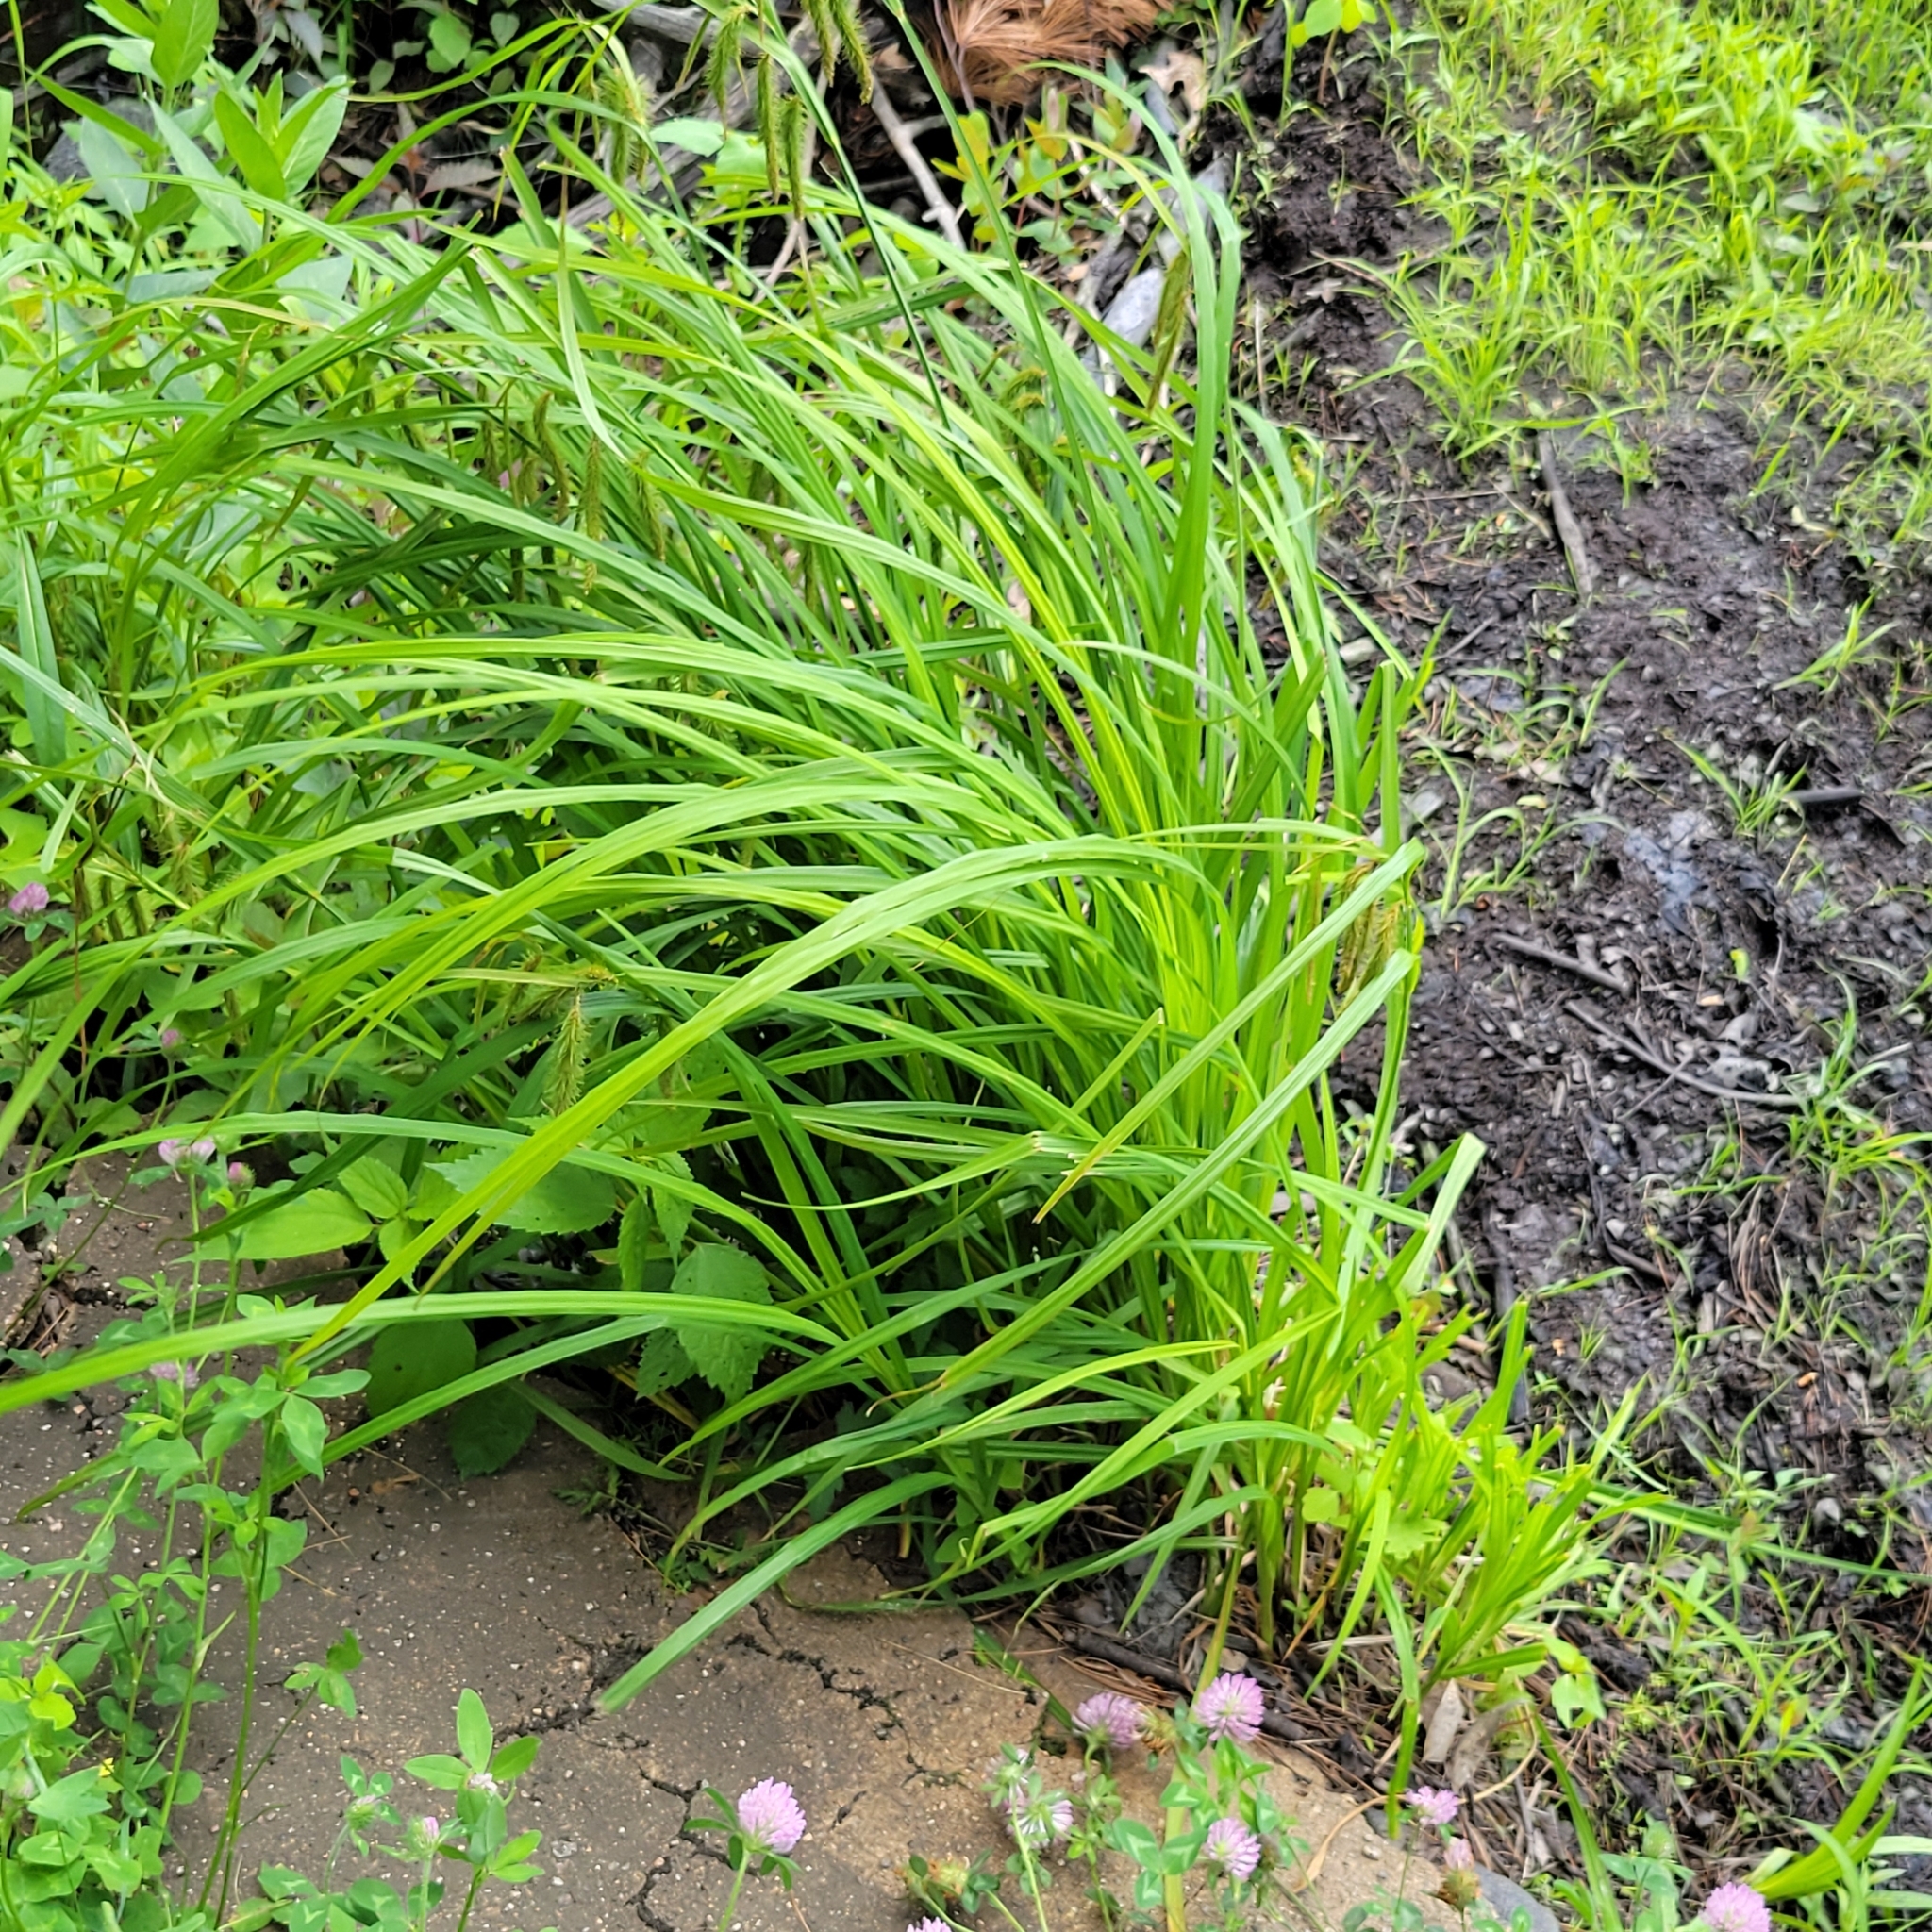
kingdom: Plantae
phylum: Tracheophyta
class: Liliopsida
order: Poales
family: Cyperaceae
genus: Carex
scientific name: Carex crinita
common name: Fringed sedge
